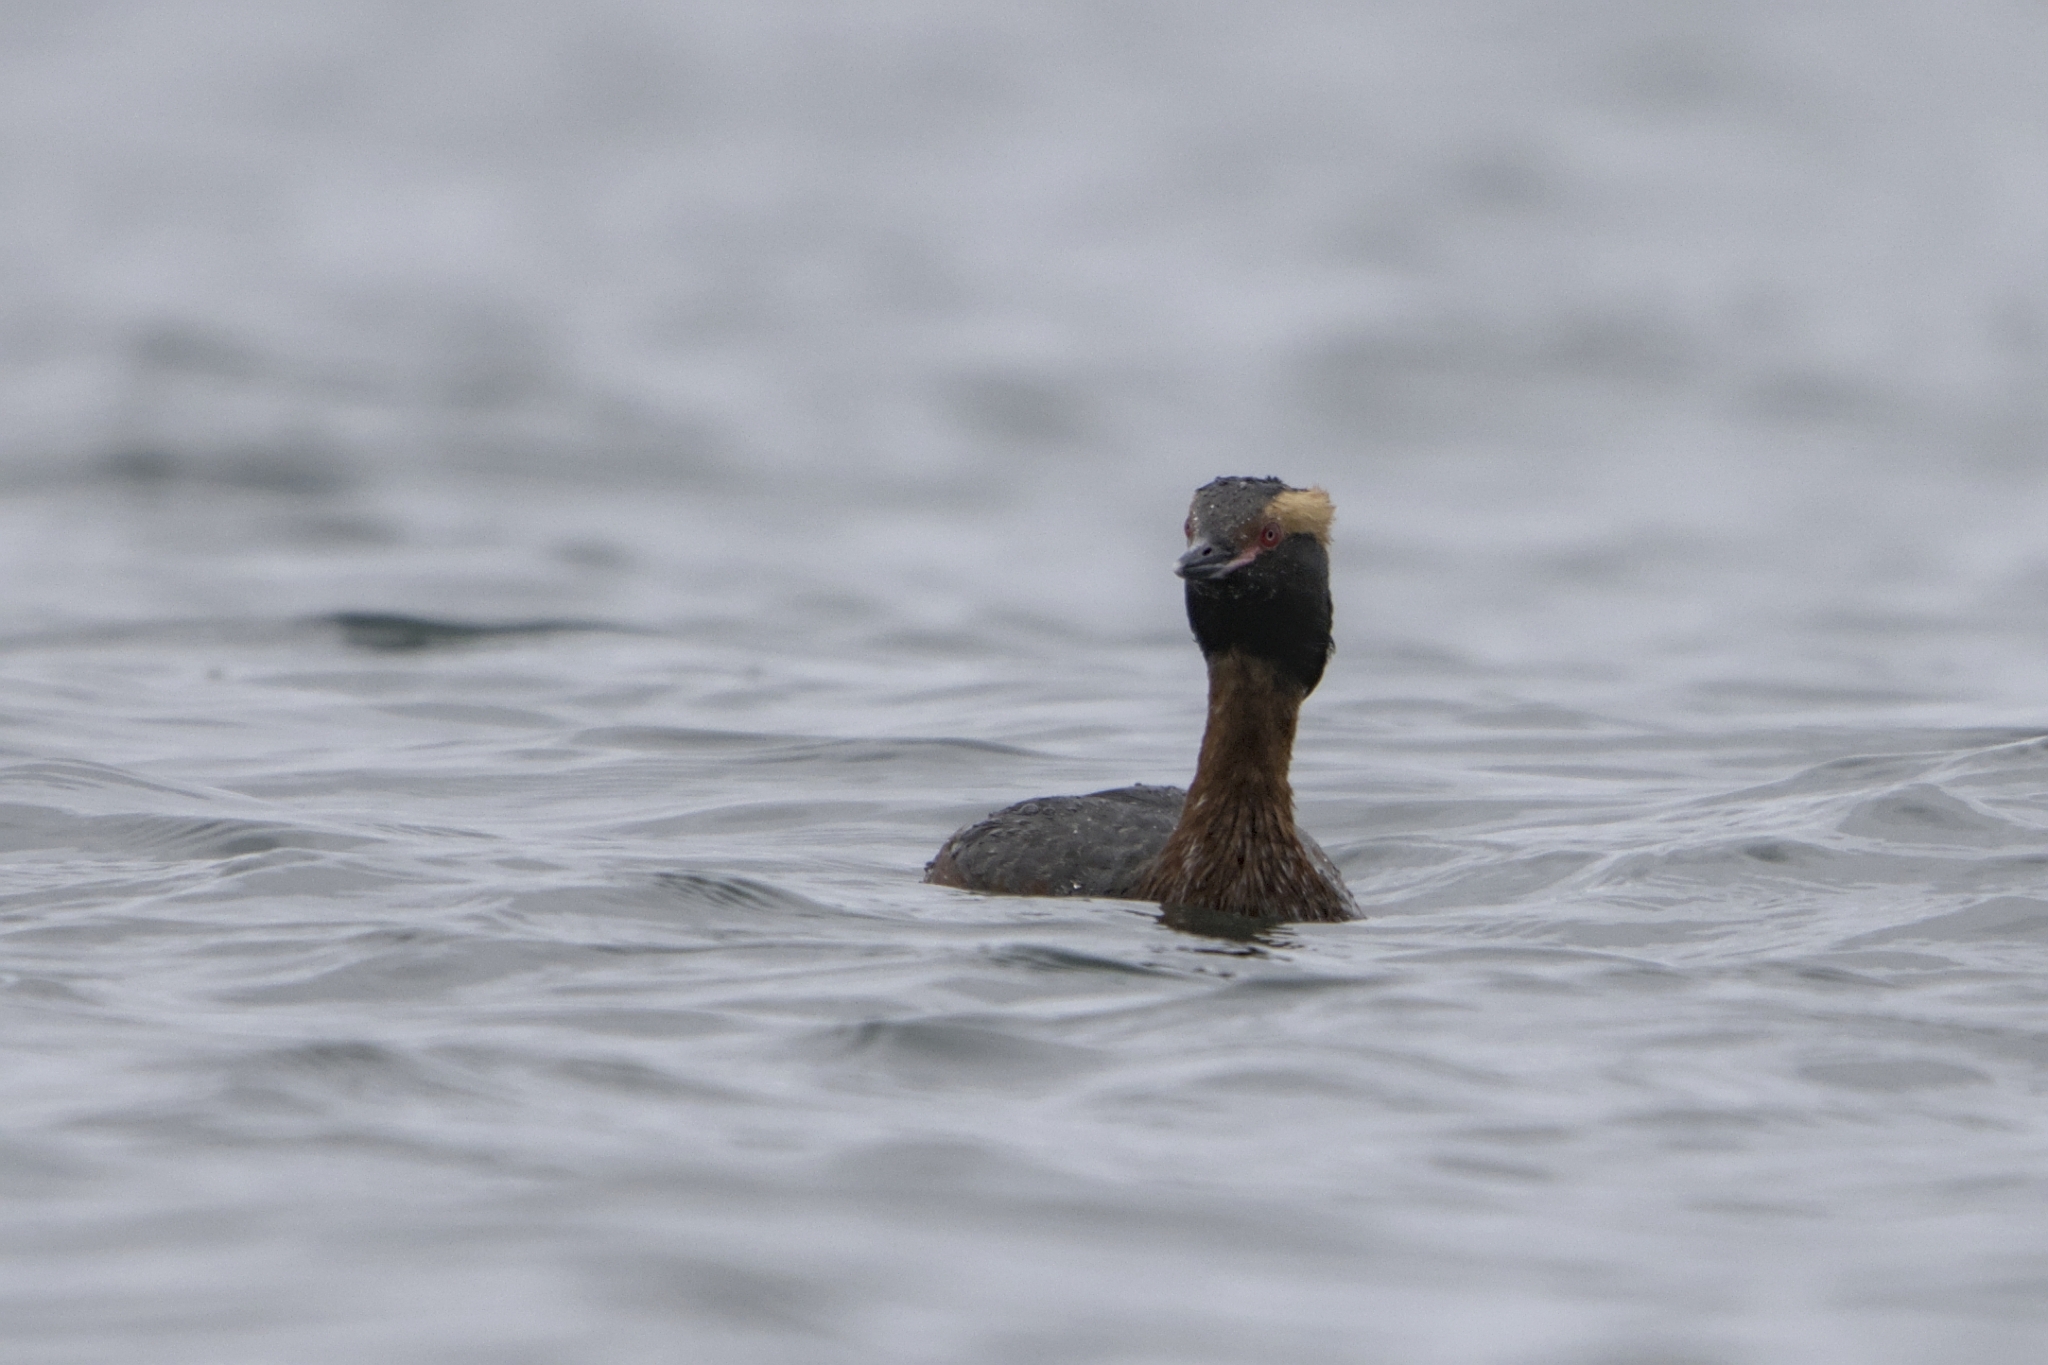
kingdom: Animalia
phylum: Chordata
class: Aves
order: Podicipediformes
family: Podicipedidae
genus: Podiceps
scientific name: Podiceps auritus
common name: Horned grebe
